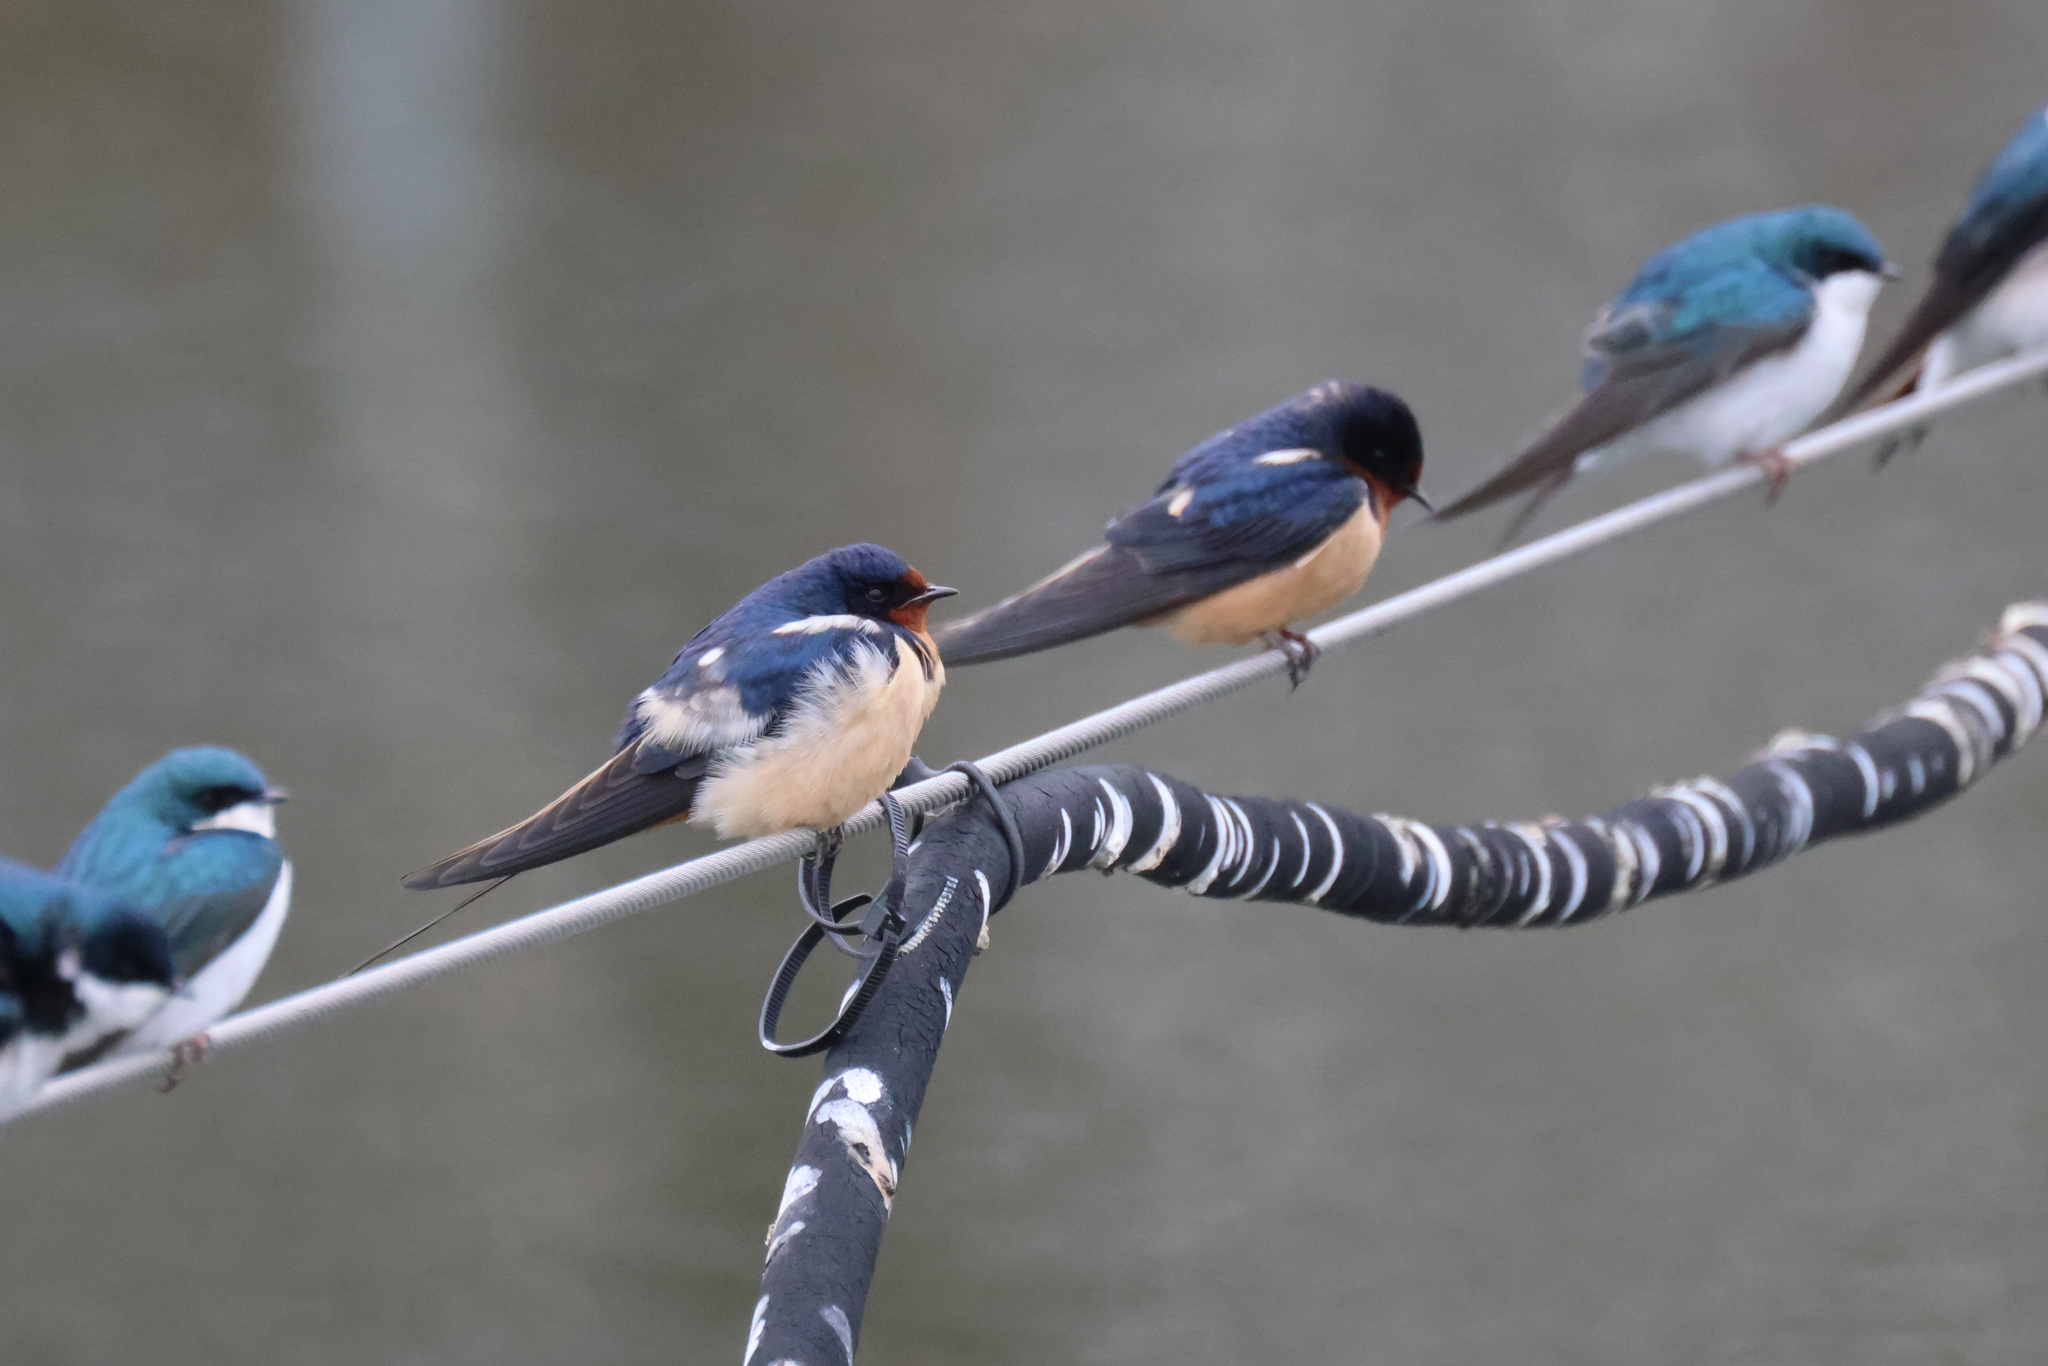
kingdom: Animalia
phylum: Chordata
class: Aves
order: Passeriformes
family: Hirundinidae
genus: Hirundo
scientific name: Hirundo rustica
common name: Barn swallow
